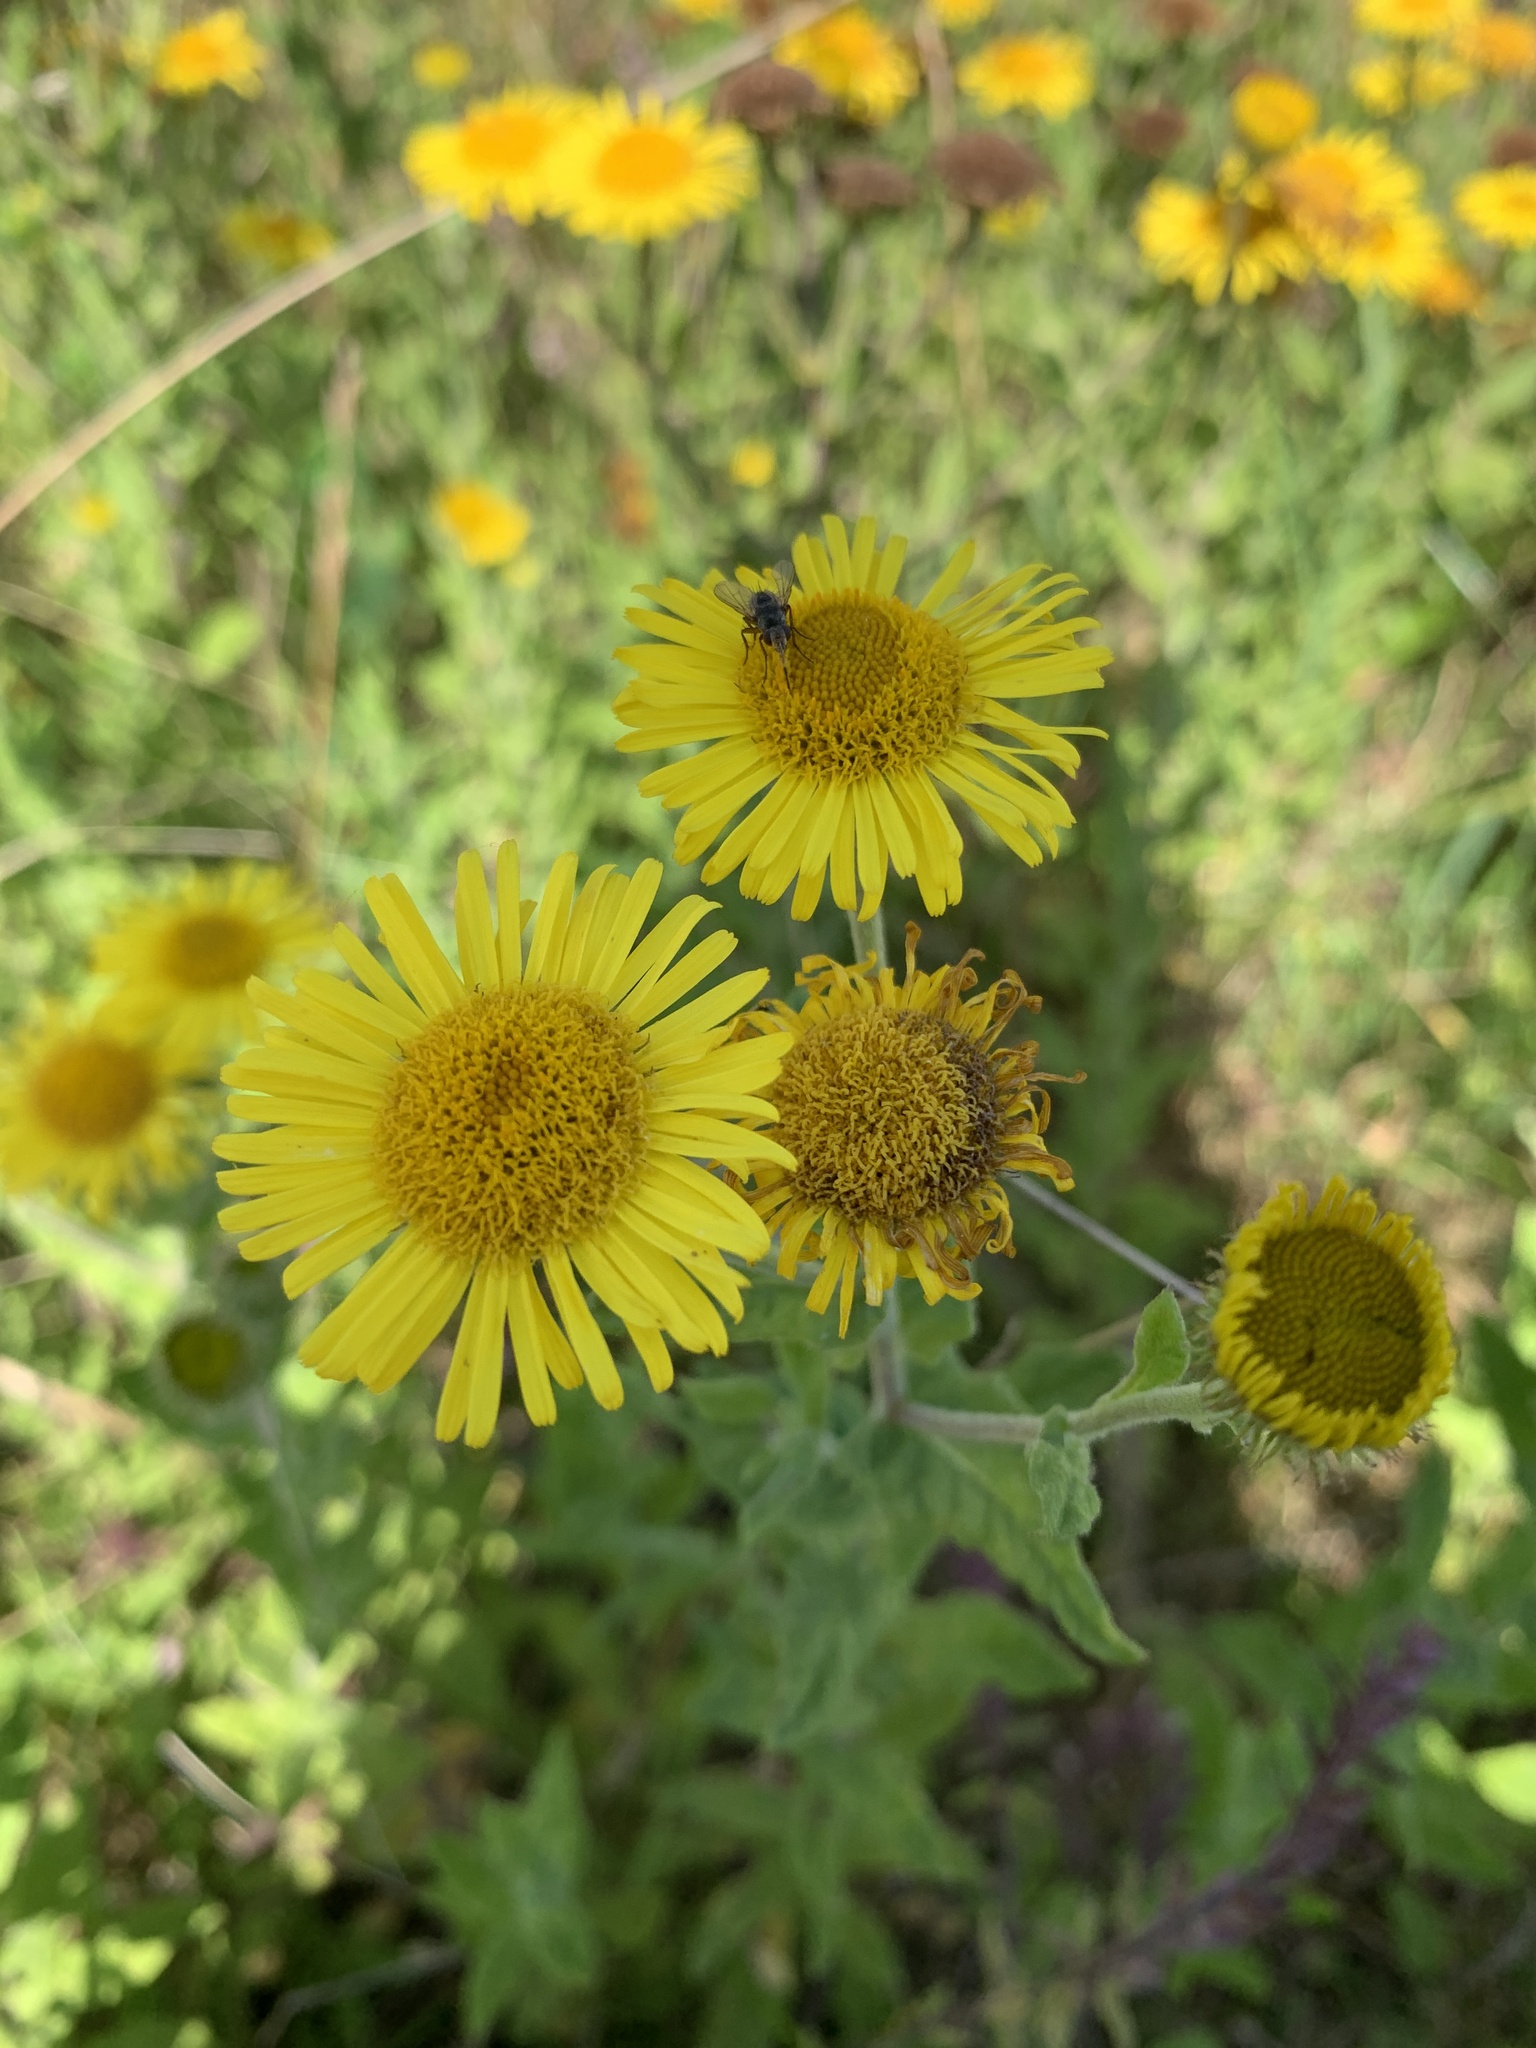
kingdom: Plantae
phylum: Tracheophyta
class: Magnoliopsida
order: Asterales
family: Asteraceae
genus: Pulicaria
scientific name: Pulicaria dysenterica
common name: Common fleabane
